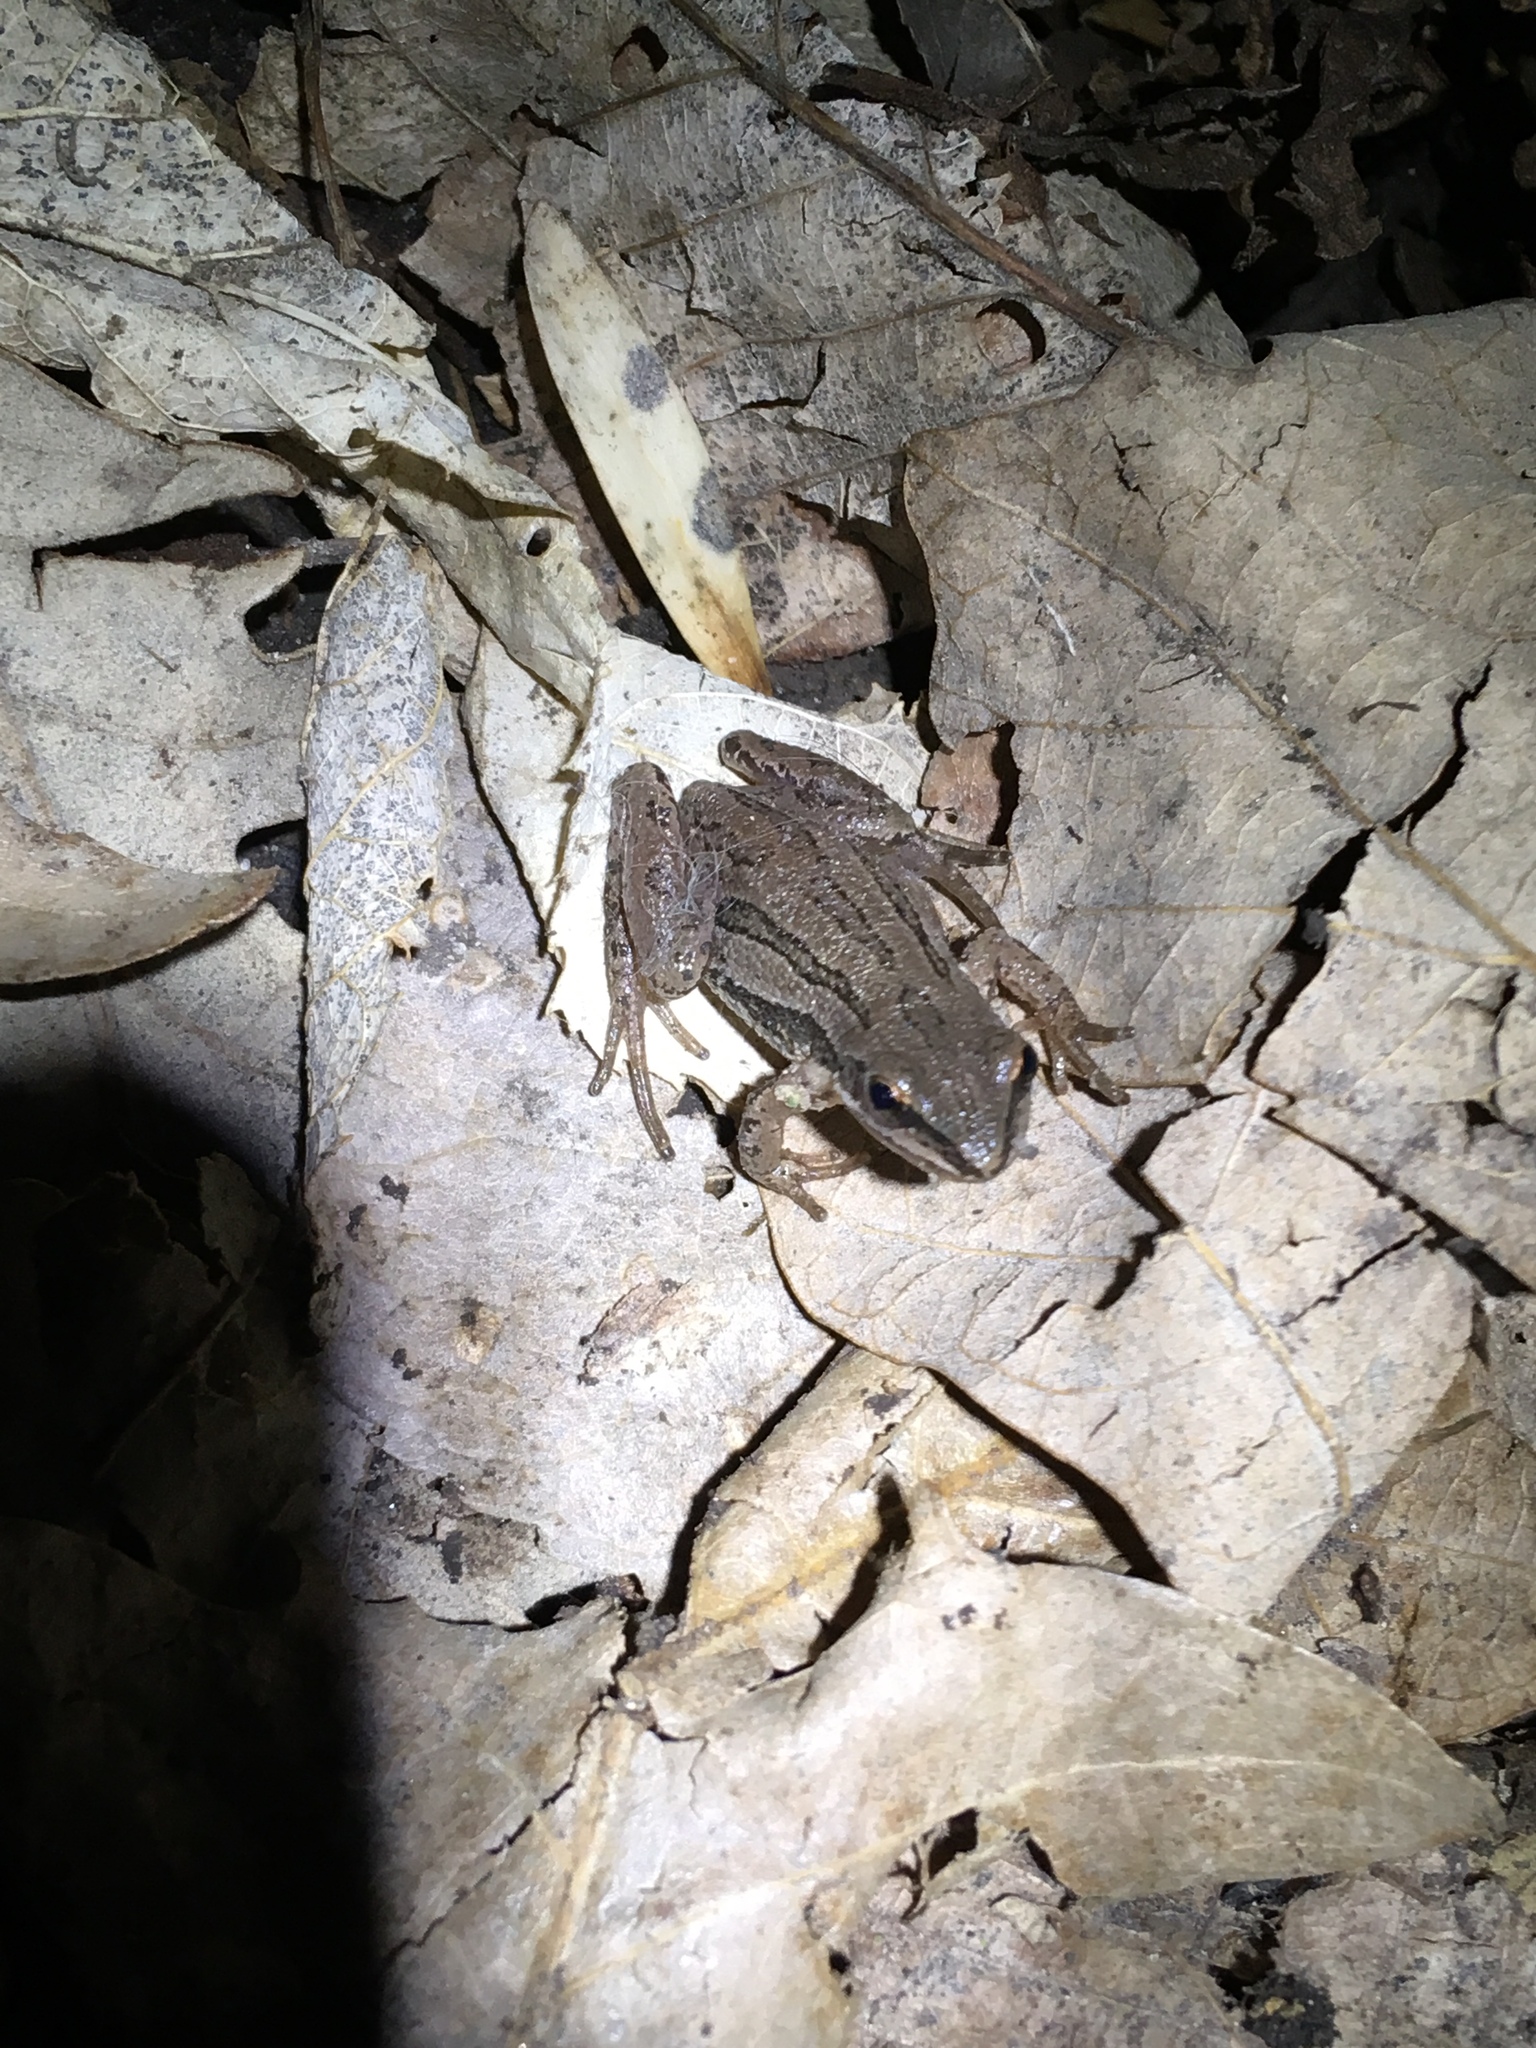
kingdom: Animalia
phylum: Chordata
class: Amphibia
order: Anura
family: Hylidae
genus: Pseudacris
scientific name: Pseudacris maculata
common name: Boreal chorus frog
